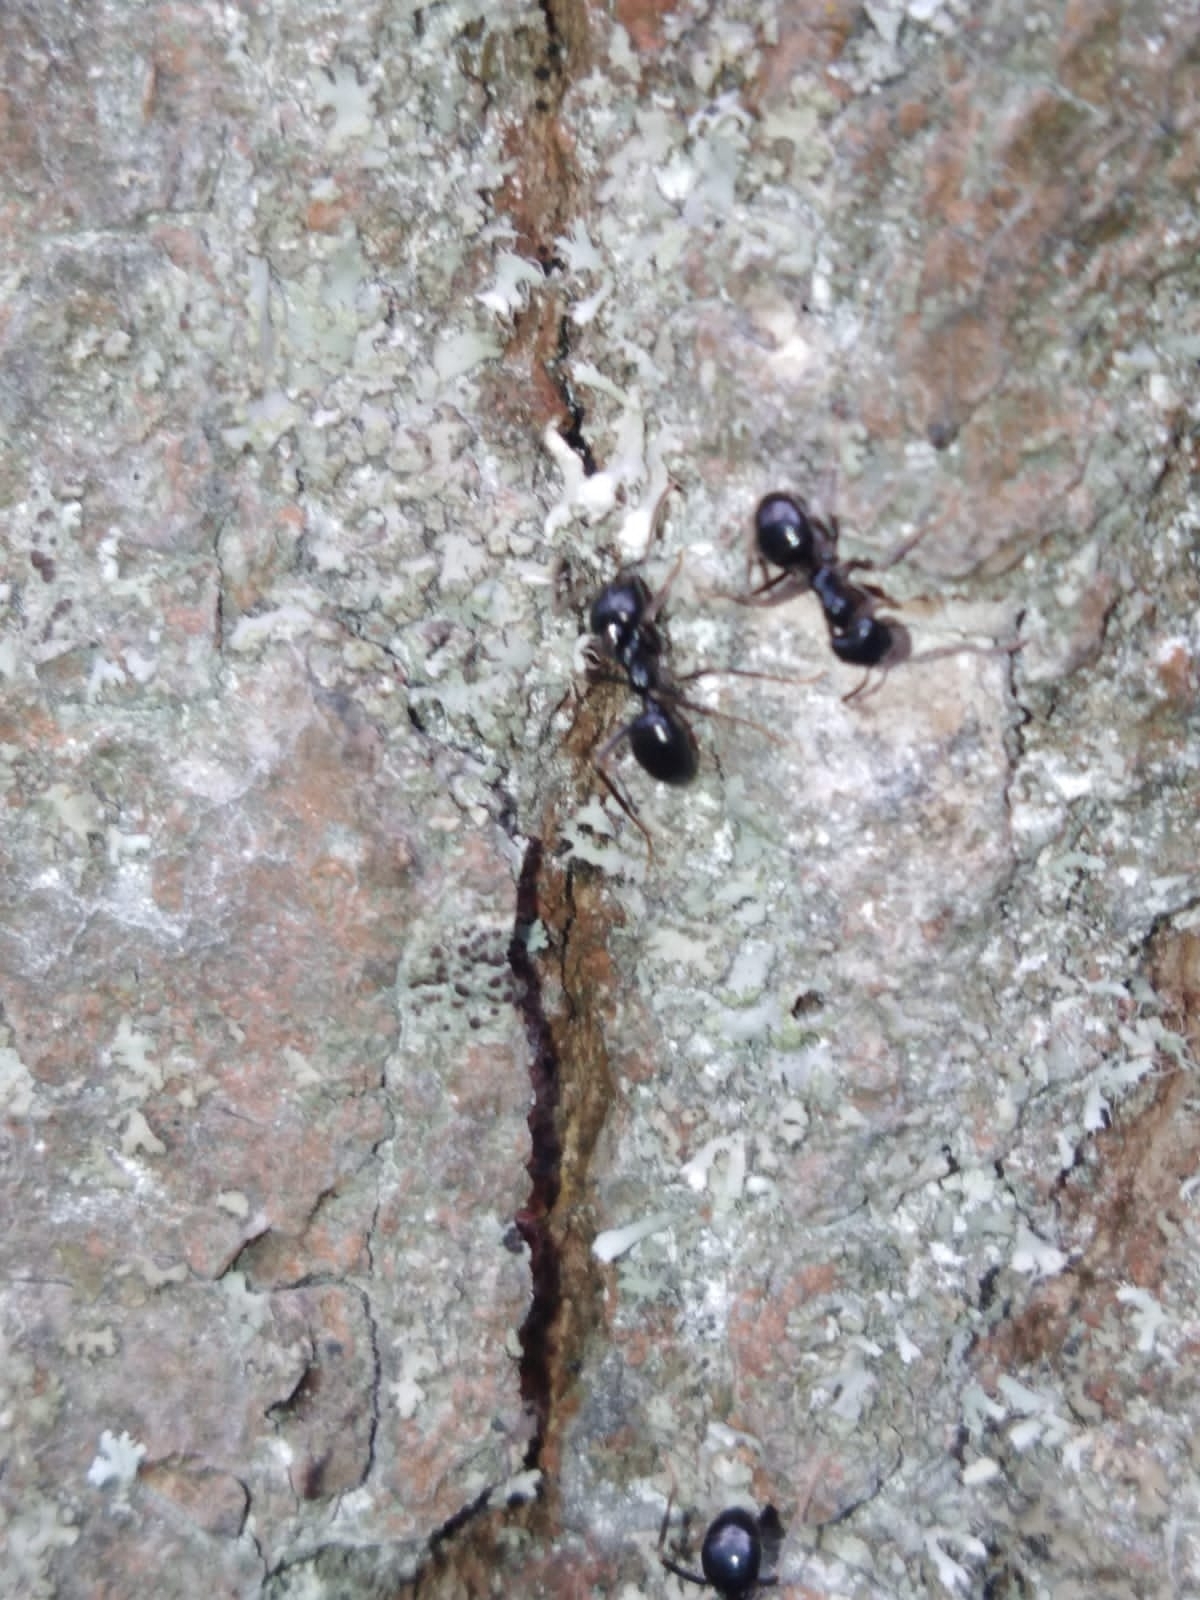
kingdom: Animalia
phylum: Arthropoda
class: Insecta
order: Hymenoptera
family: Formicidae
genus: Lasius
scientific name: Lasius fuliginosus
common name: Jet ant
